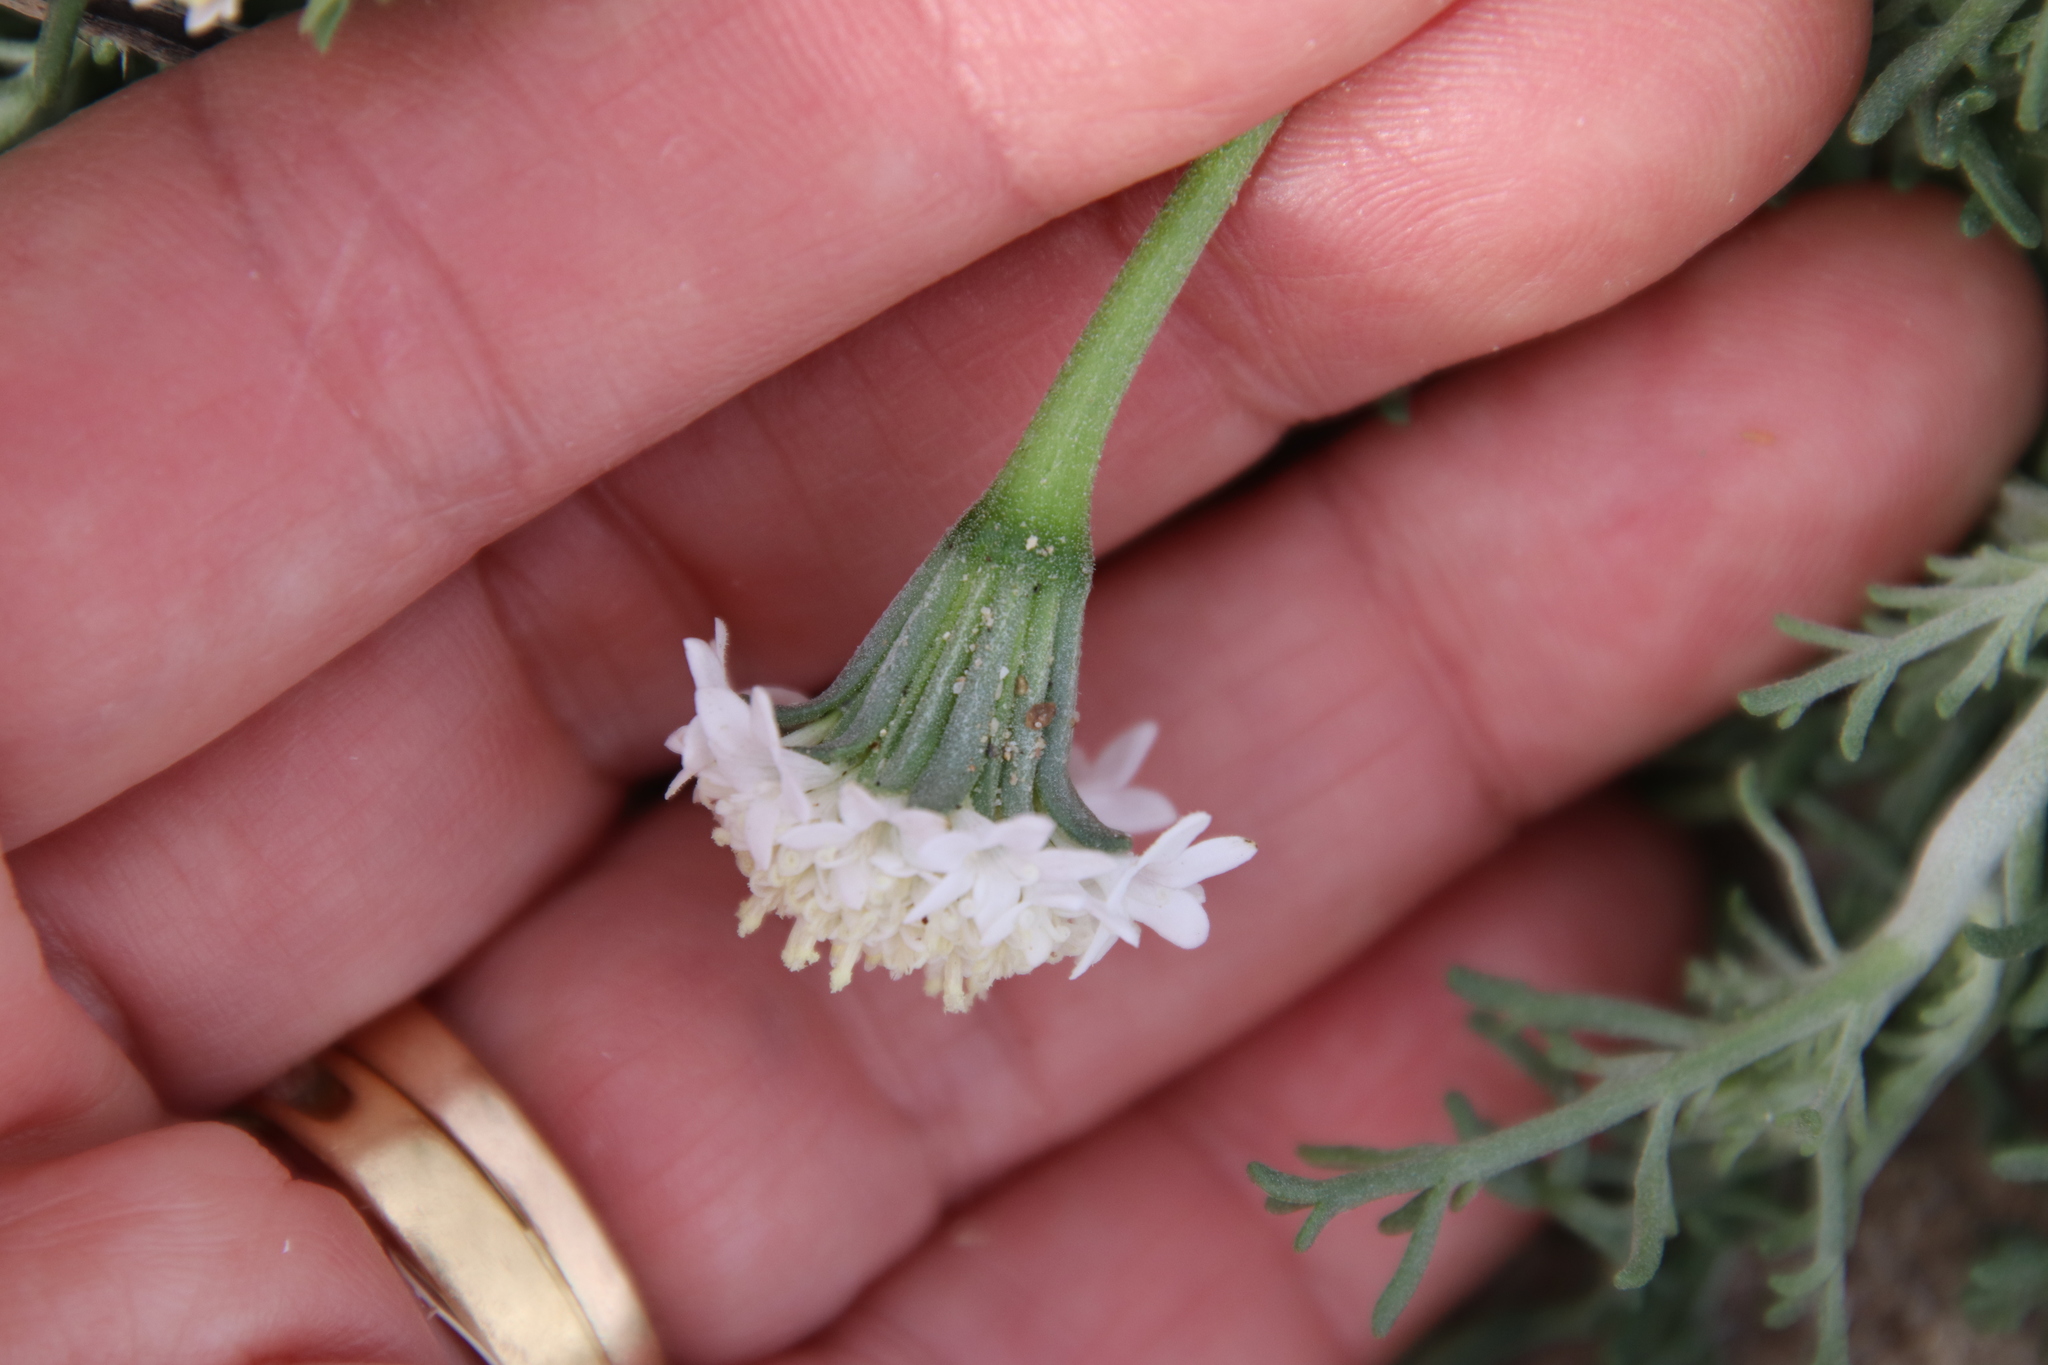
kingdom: Plantae
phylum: Tracheophyta
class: Magnoliopsida
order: Asterales
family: Asteraceae
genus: Chaenactis
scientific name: Chaenactis stevioides
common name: Desert pincushion
